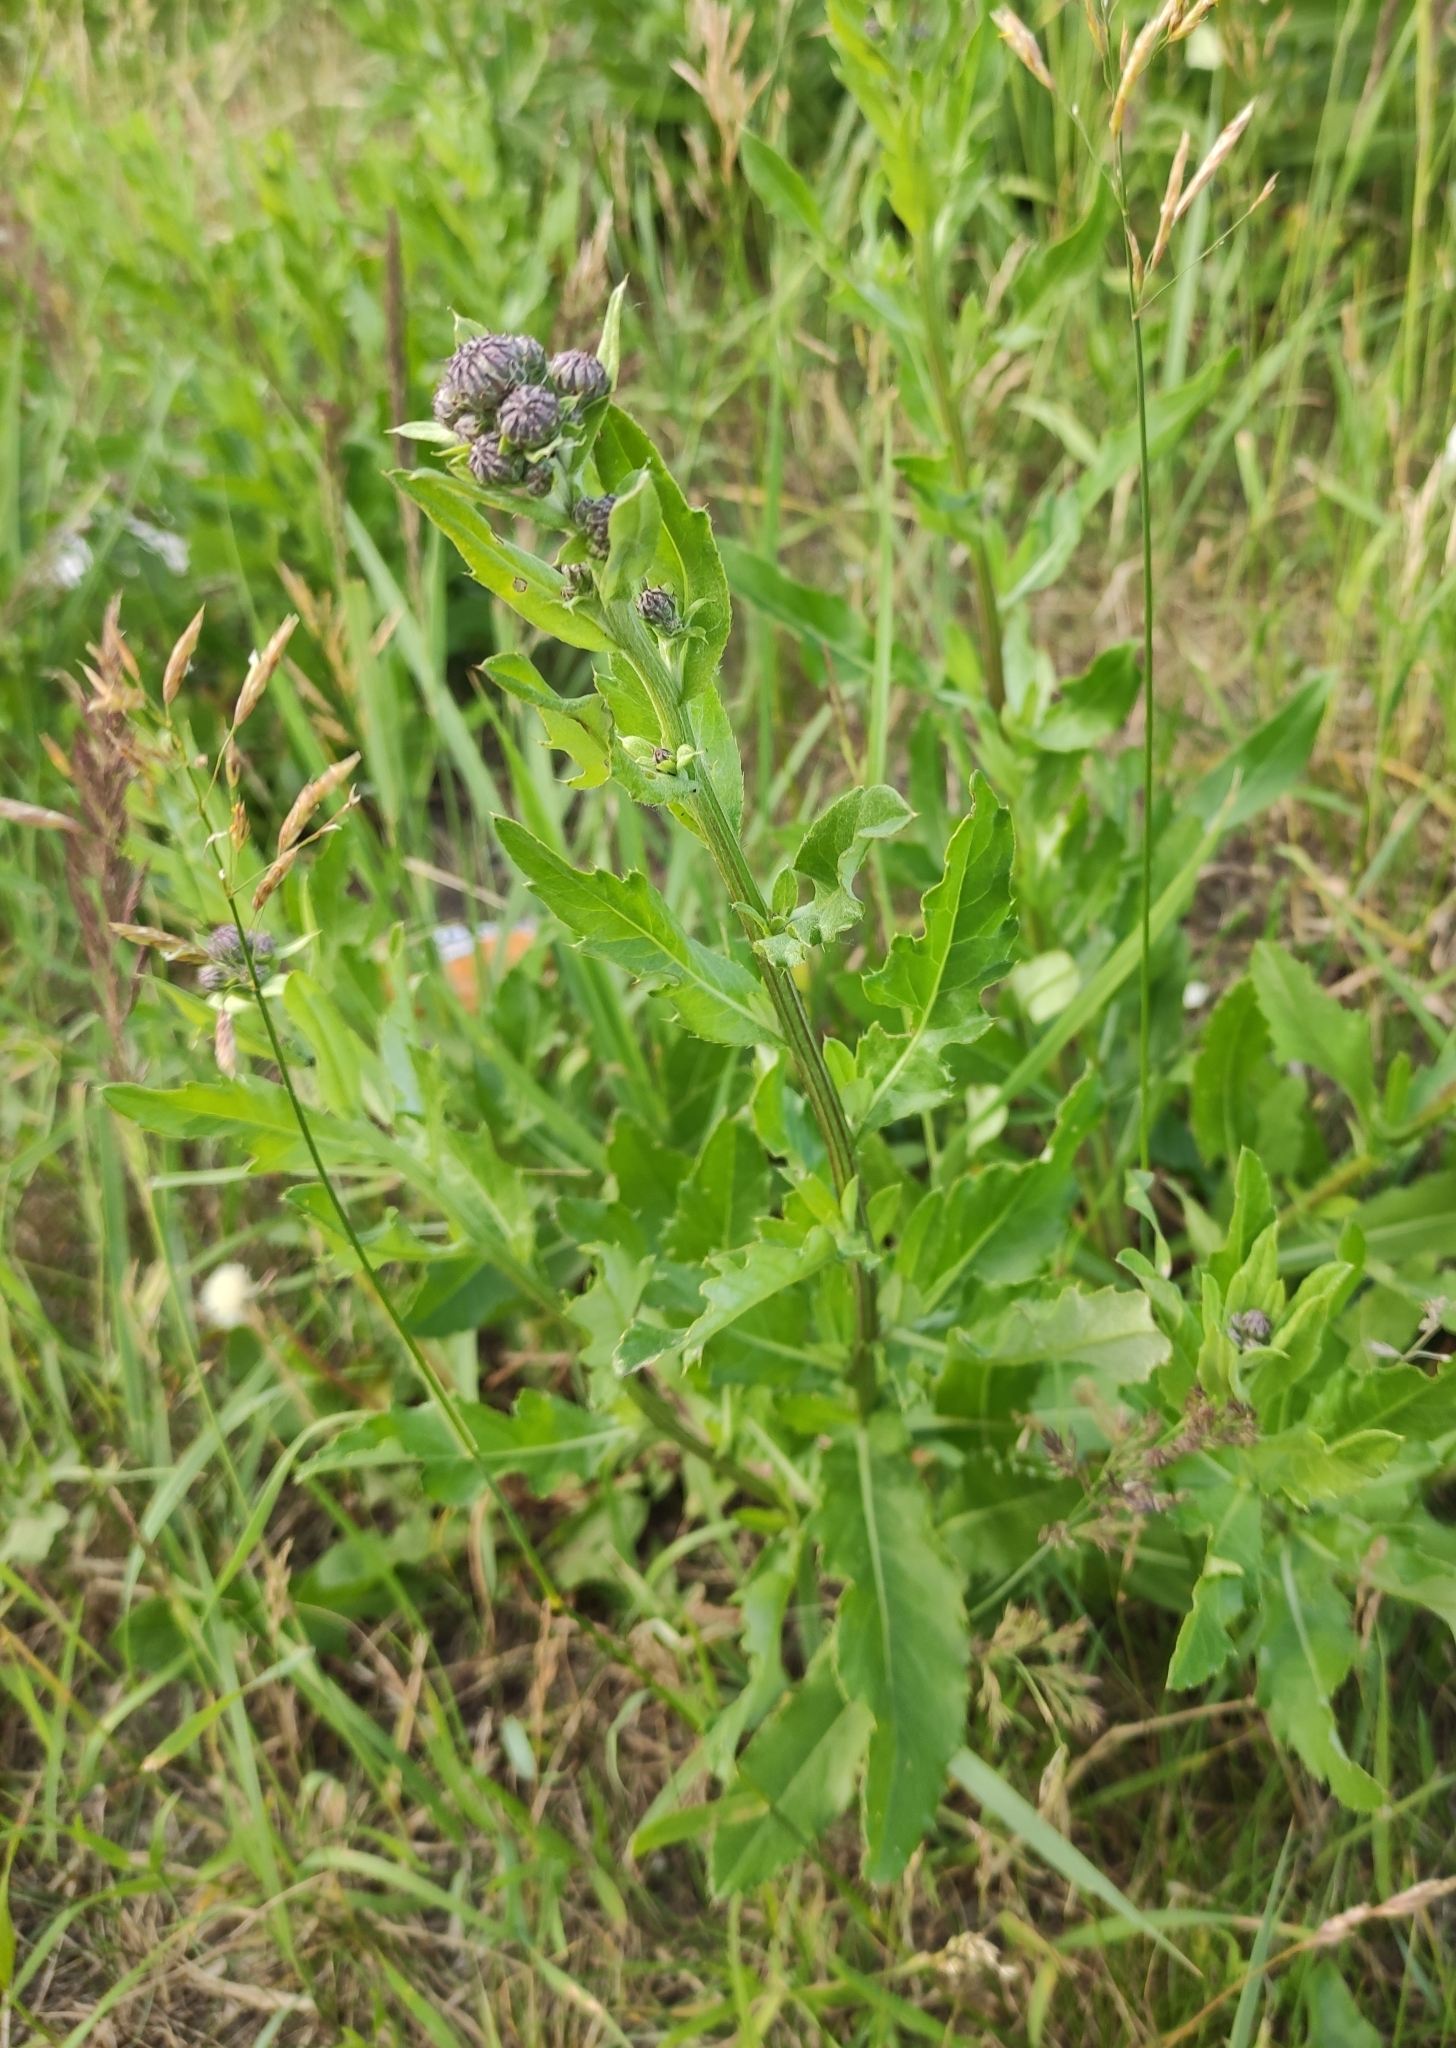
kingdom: Plantae
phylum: Tracheophyta
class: Magnoliopsida
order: Asterales
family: Asteraceae
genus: Cirsium
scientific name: Cirsium arvense
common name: Creeping thistle
